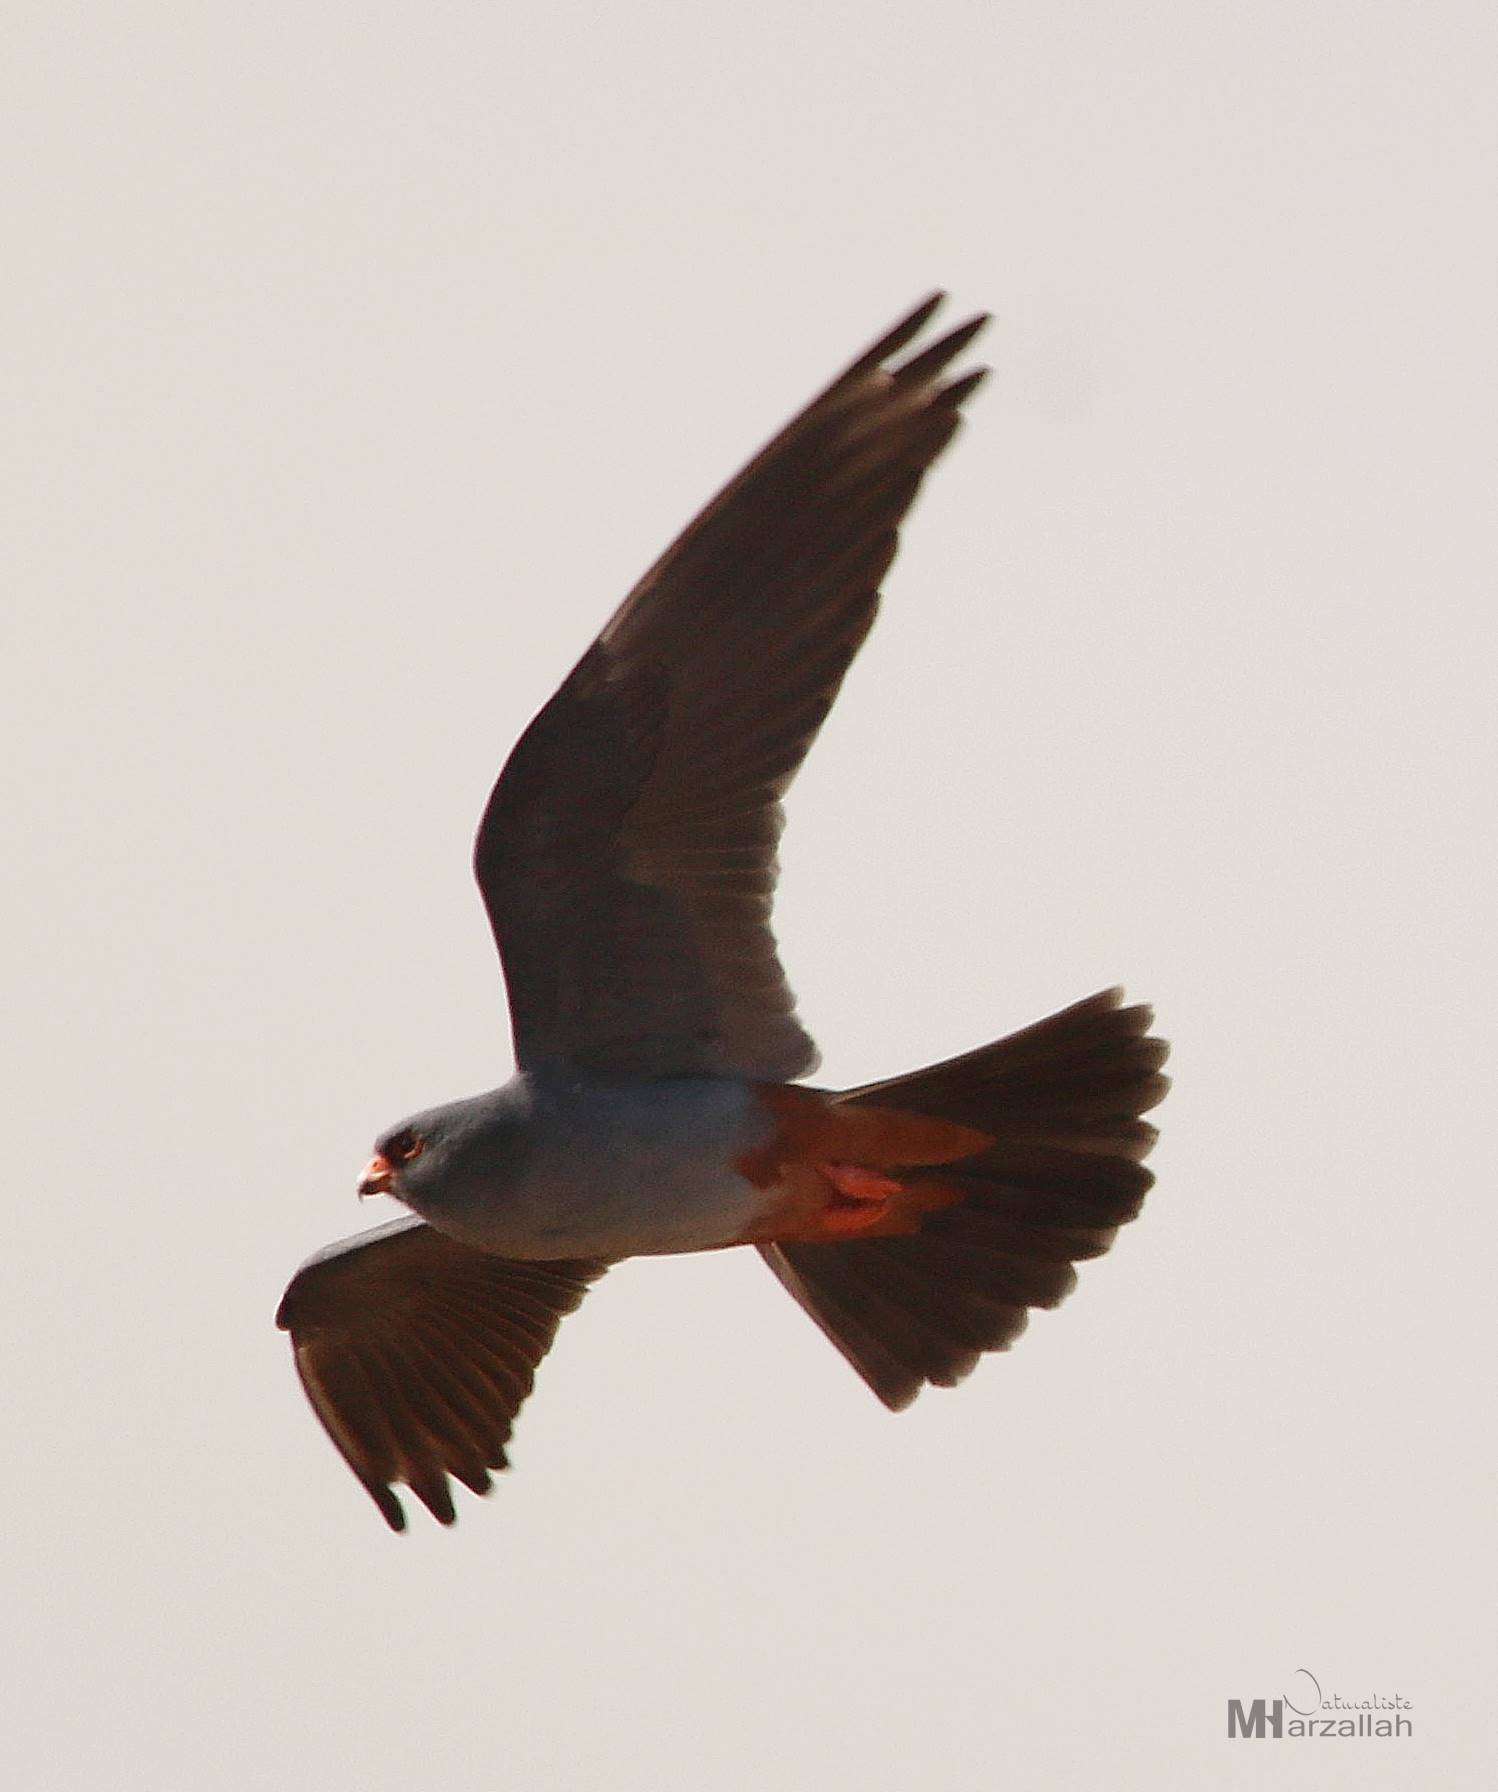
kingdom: Animalia
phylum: Chordata
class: Aves
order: Falconiformes
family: Falconidae
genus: Falco
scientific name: Falco vespertinus
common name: Red-footed falcon
